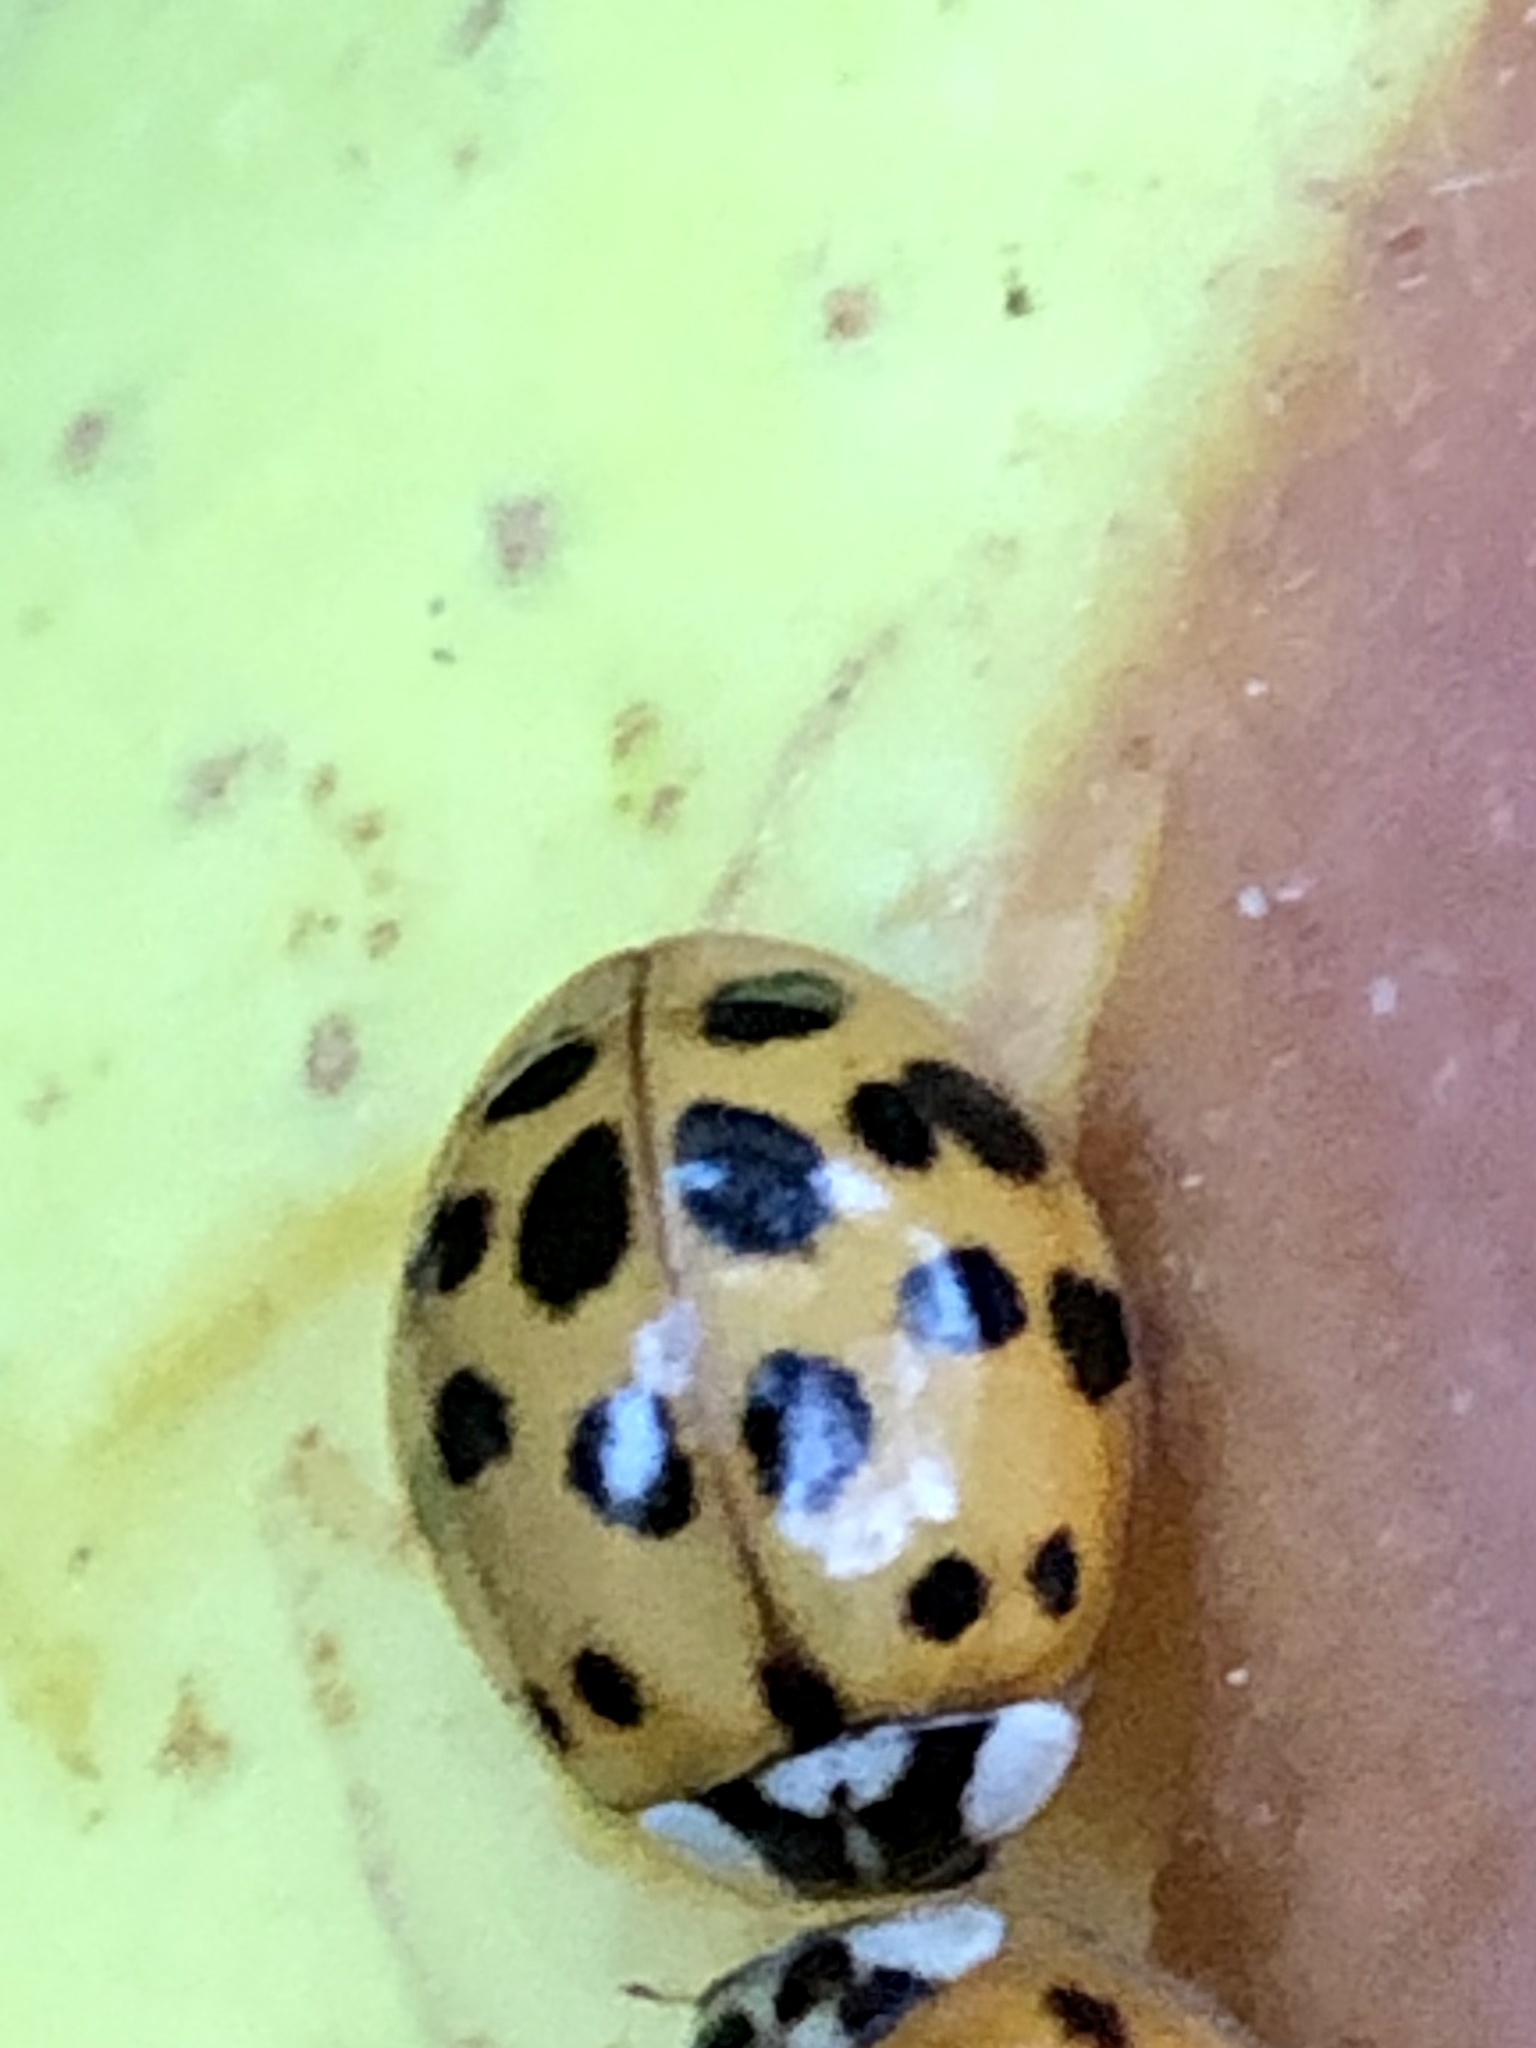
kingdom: Animalia
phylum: Arthropoda
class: Insecta
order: Coleoptera
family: Coccinellidae
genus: Harmonia
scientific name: Harmonia axyridis
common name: Harlequin ladybird
